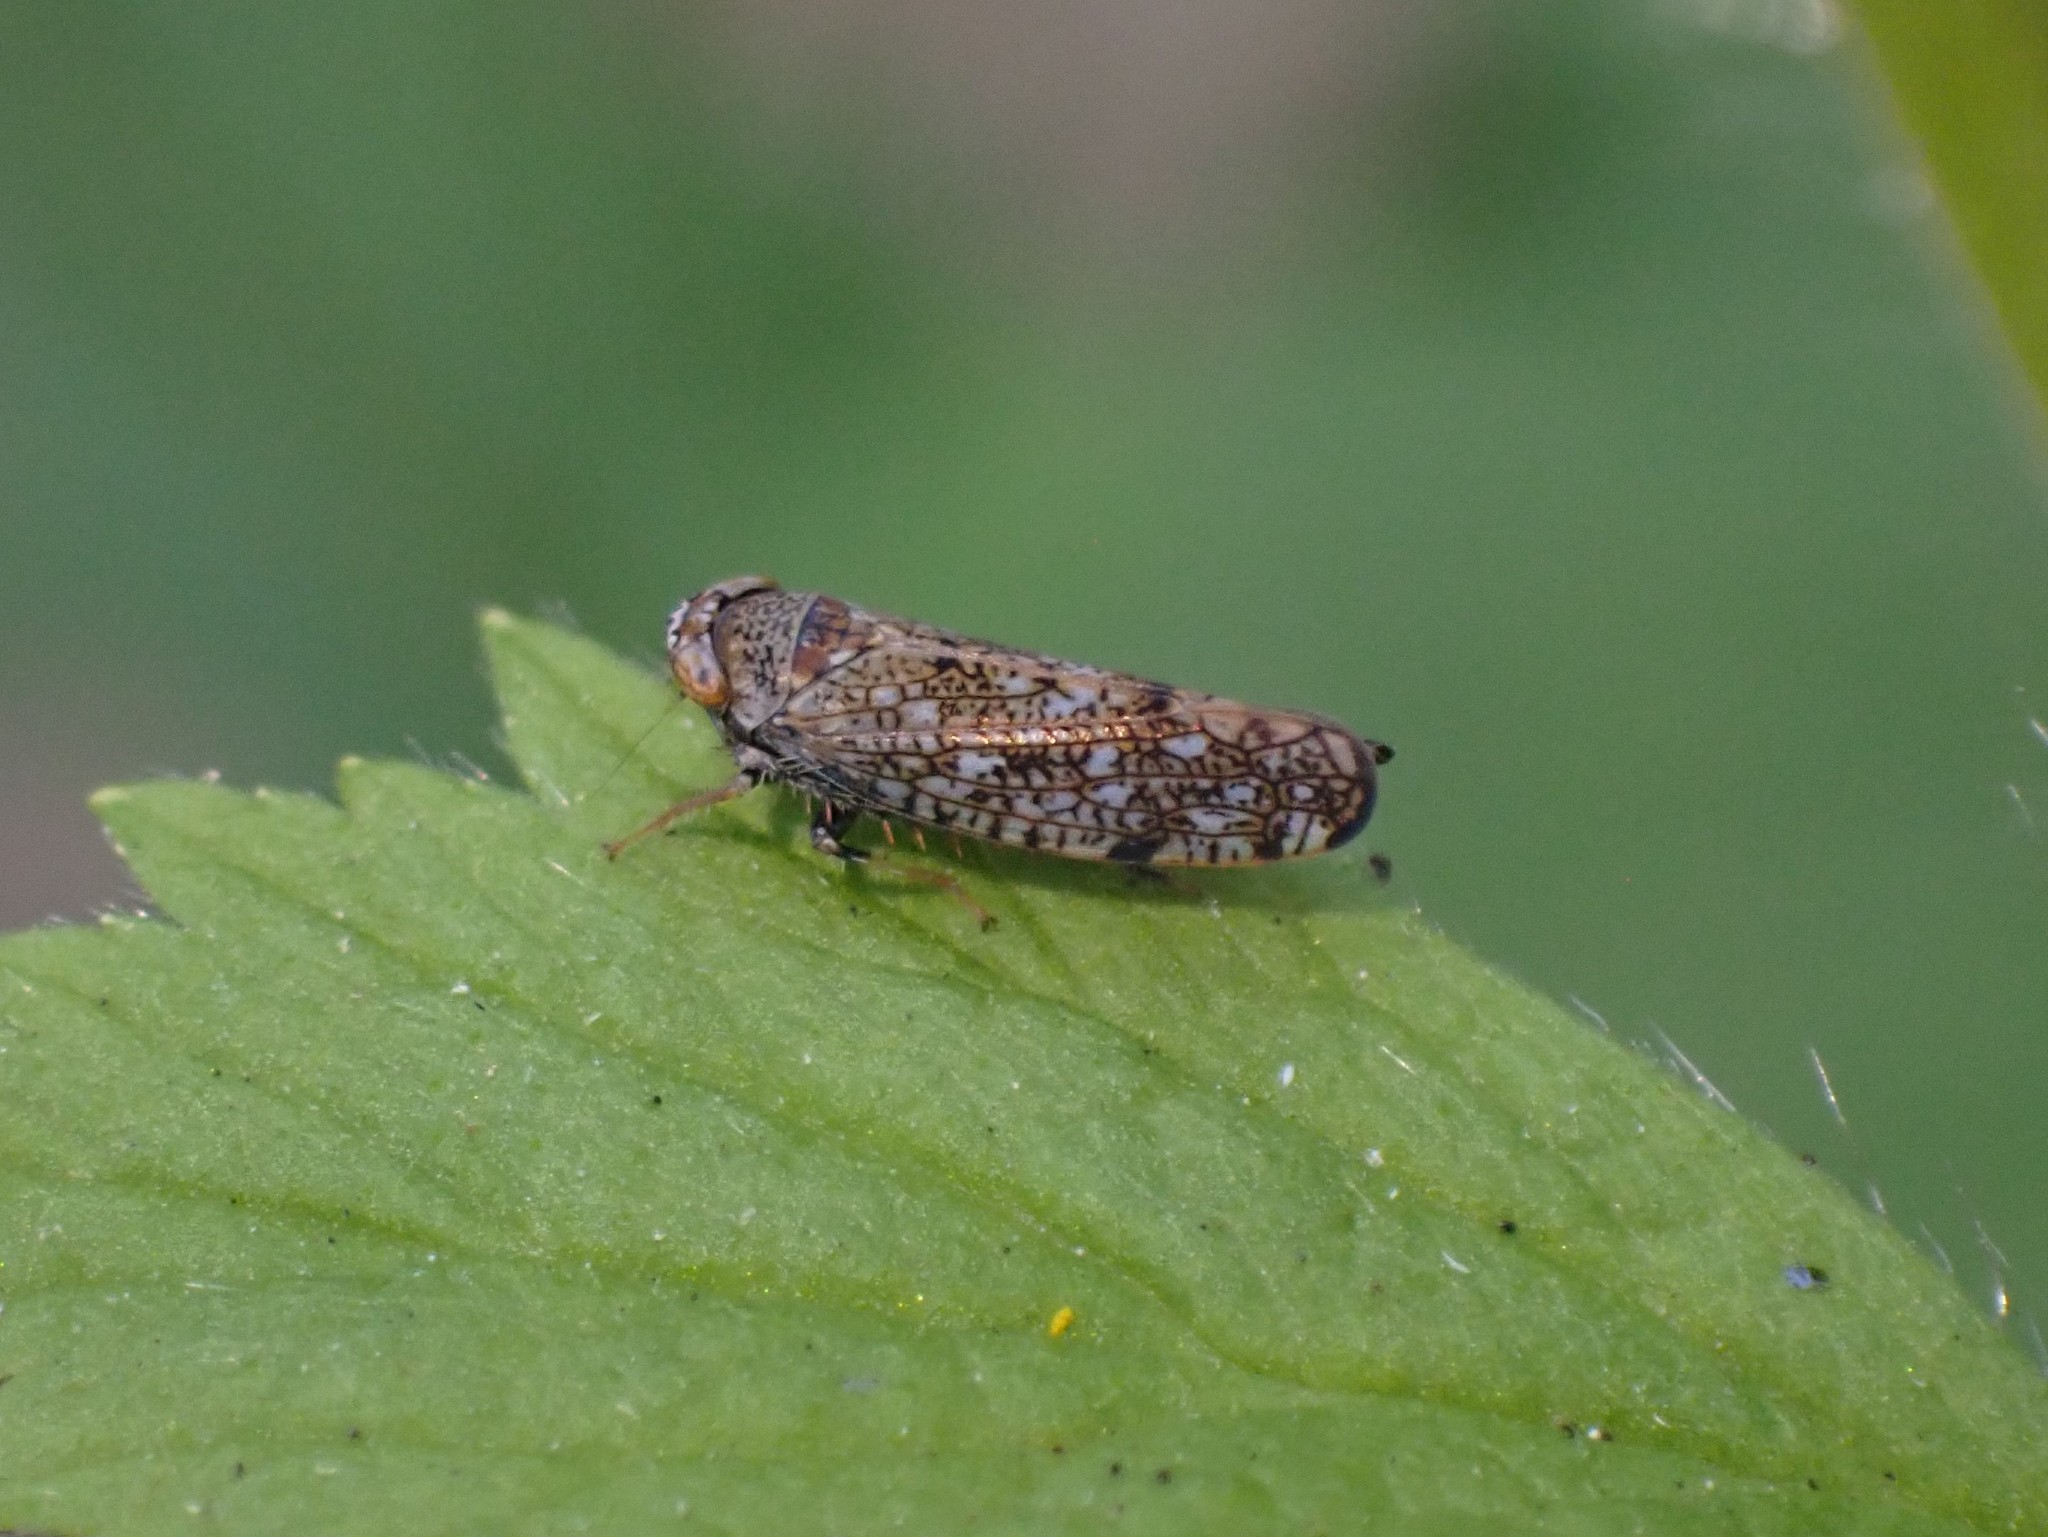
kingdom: Animalia
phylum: Arthropoda
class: Insecta
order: Hemiptera
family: Cicadellidae
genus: Orientus
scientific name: Orientus ishidae
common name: Japanese leafhopper
